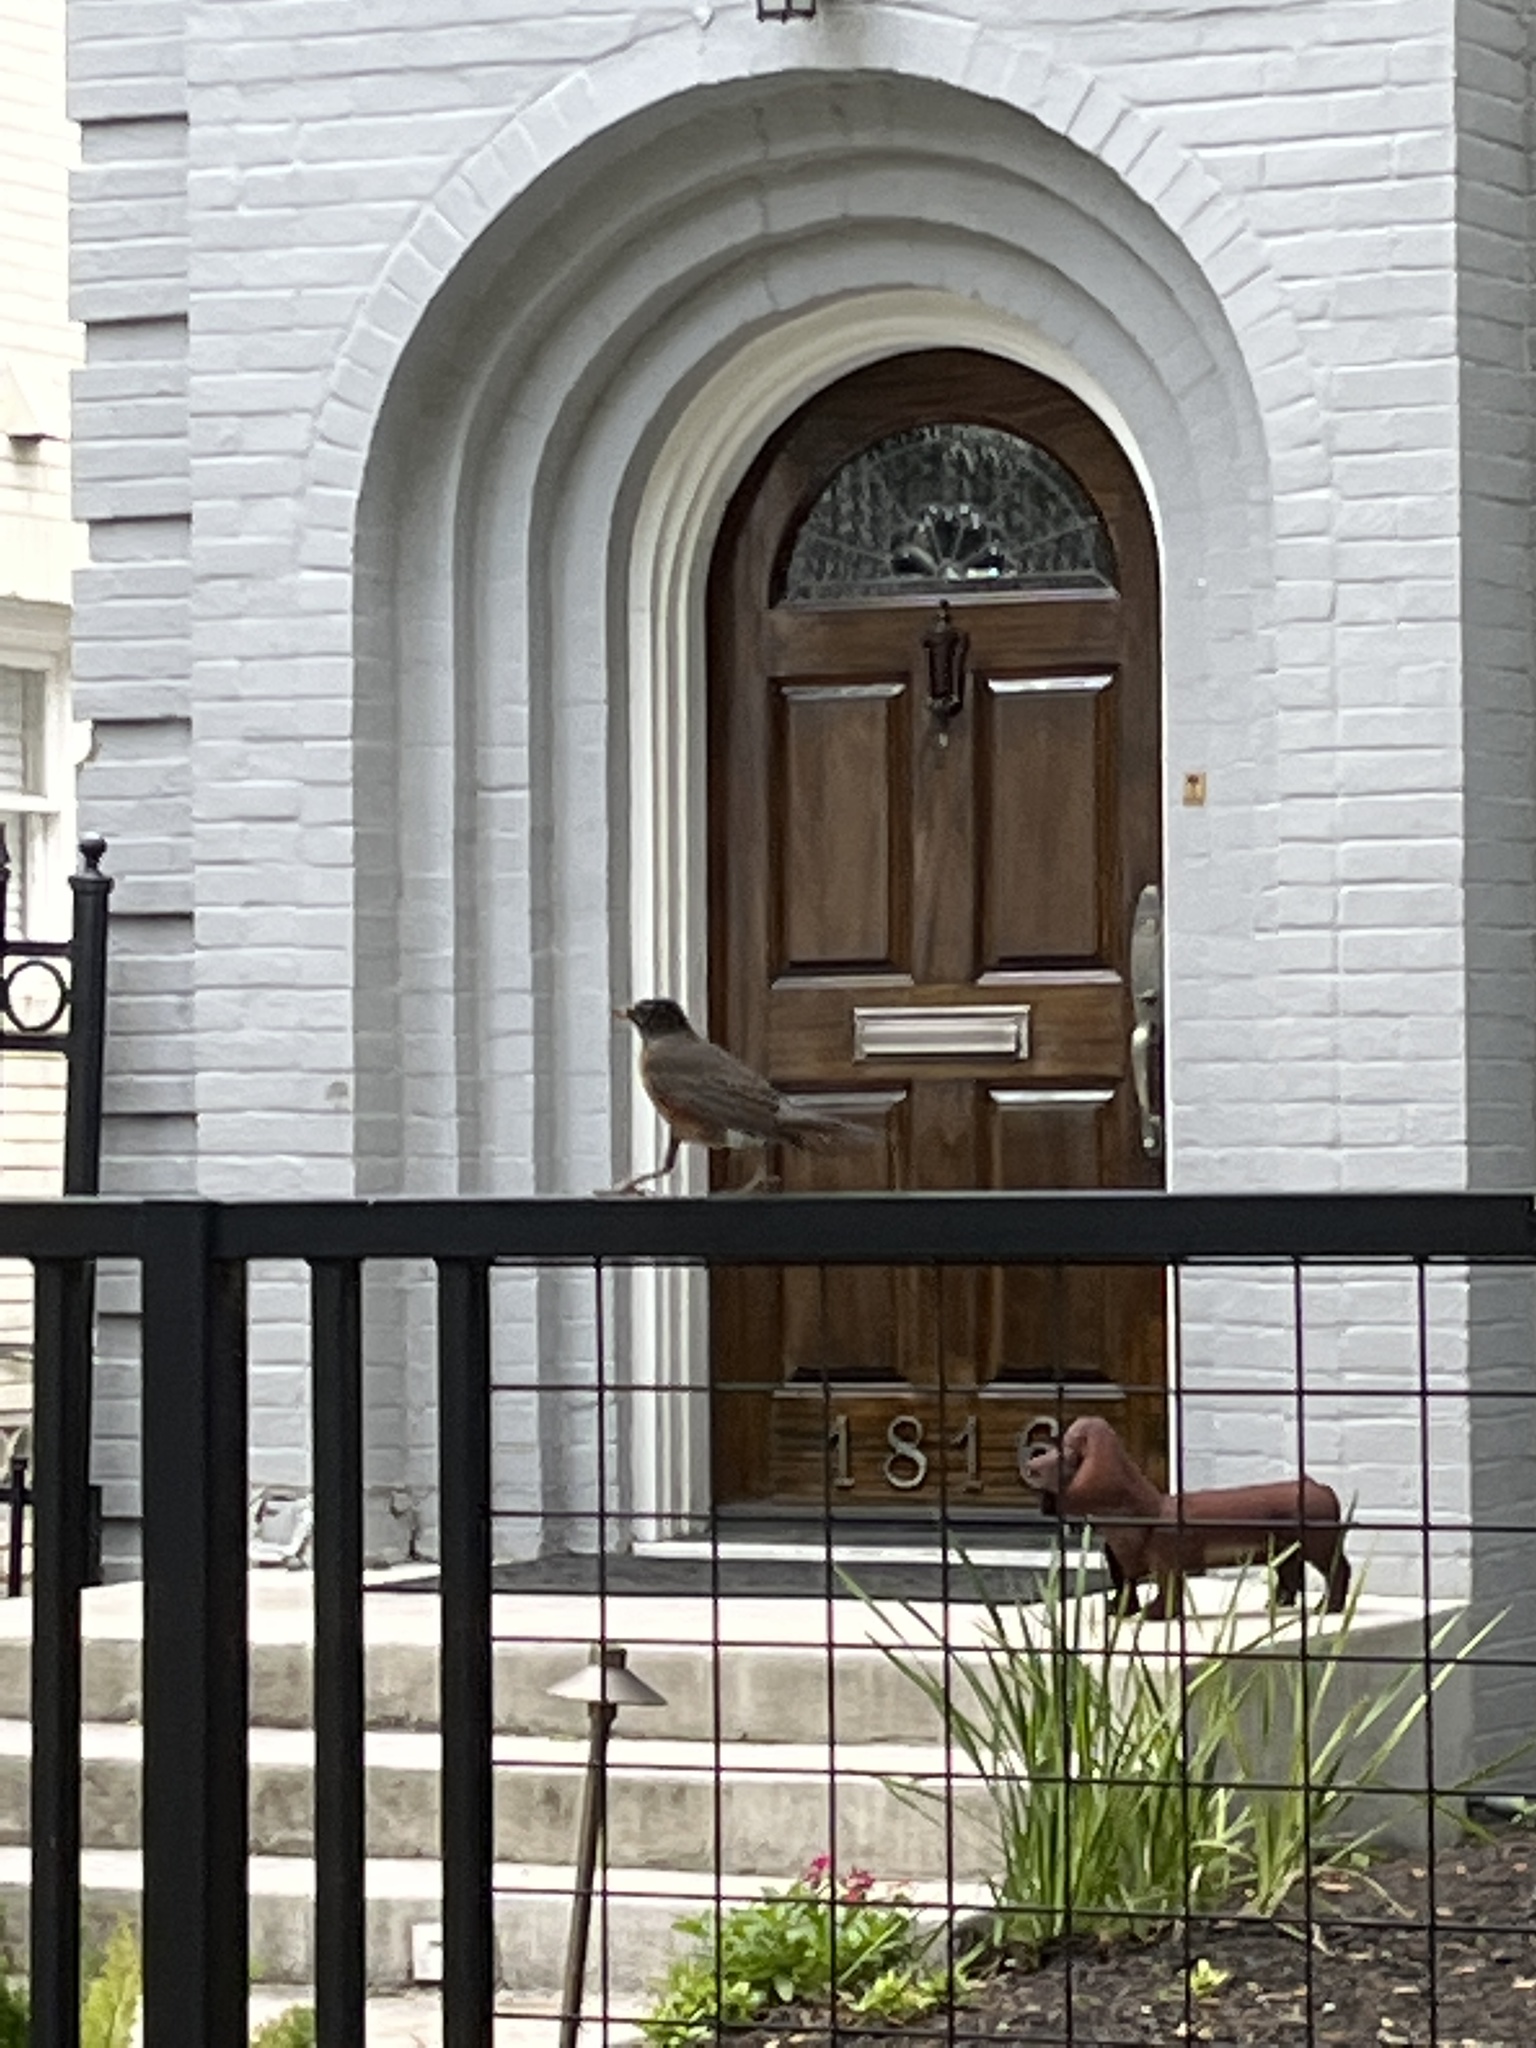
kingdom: Animalia
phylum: Chordata
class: Aves
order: Passeriformes
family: Turdidae
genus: Turdus
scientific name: Turdus migratorius
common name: American robin
